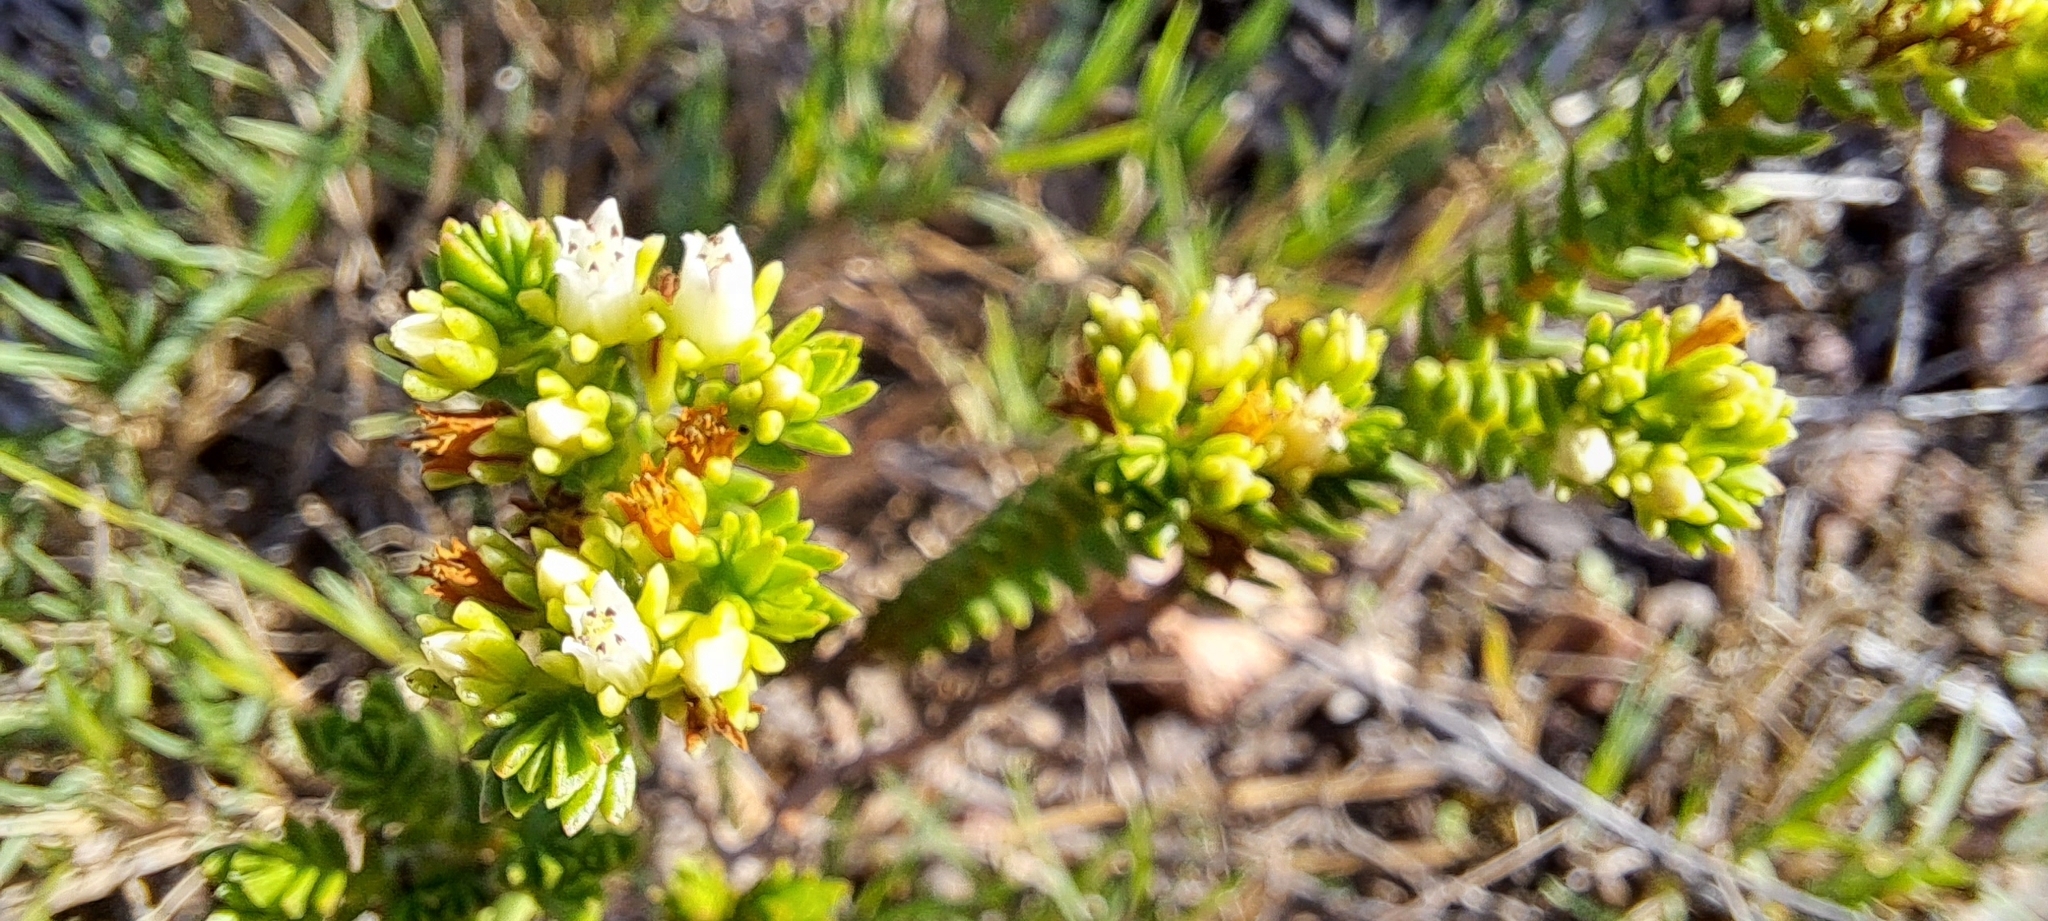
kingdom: Plantae
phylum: Tracheophyta
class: Magnoliopsida
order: Saxifragales
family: Crassulaceae
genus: Crassula
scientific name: Crassula ericoides
